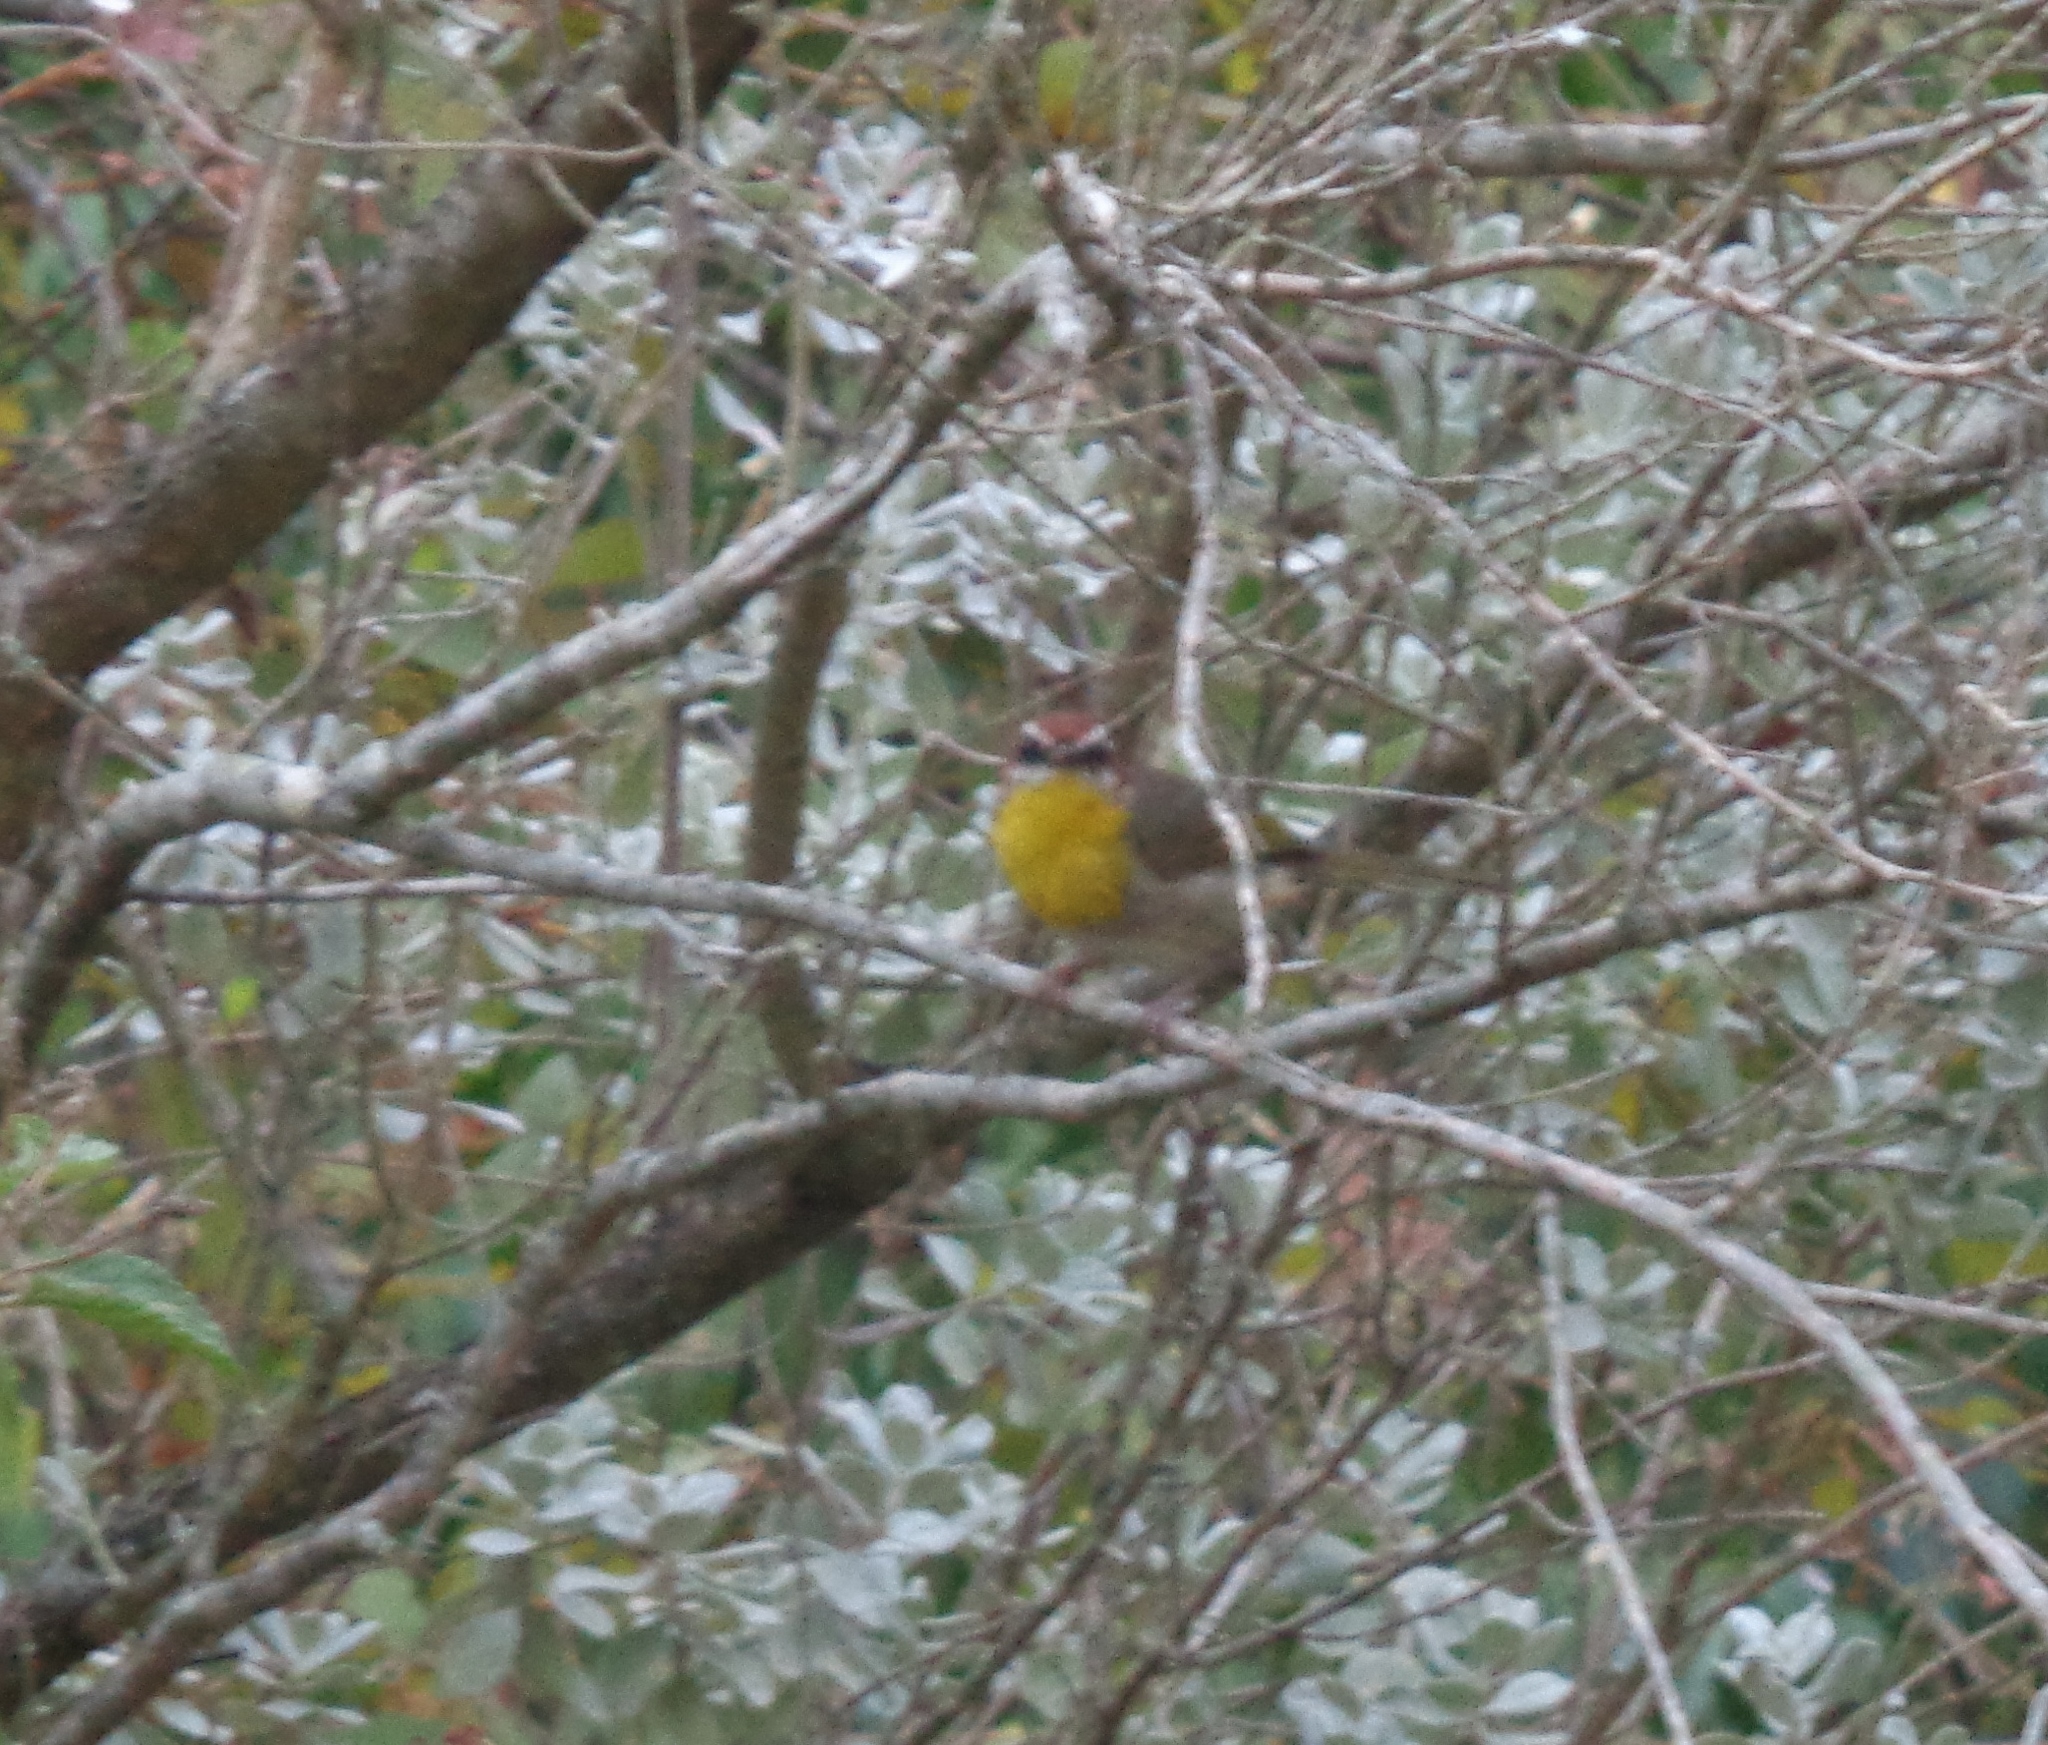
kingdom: Animalia
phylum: Chordata
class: Aves
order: Passeriformes
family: Parulidae
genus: Basileuterus
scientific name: Basileuterus rufifrons
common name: Rufous-capped warbler
